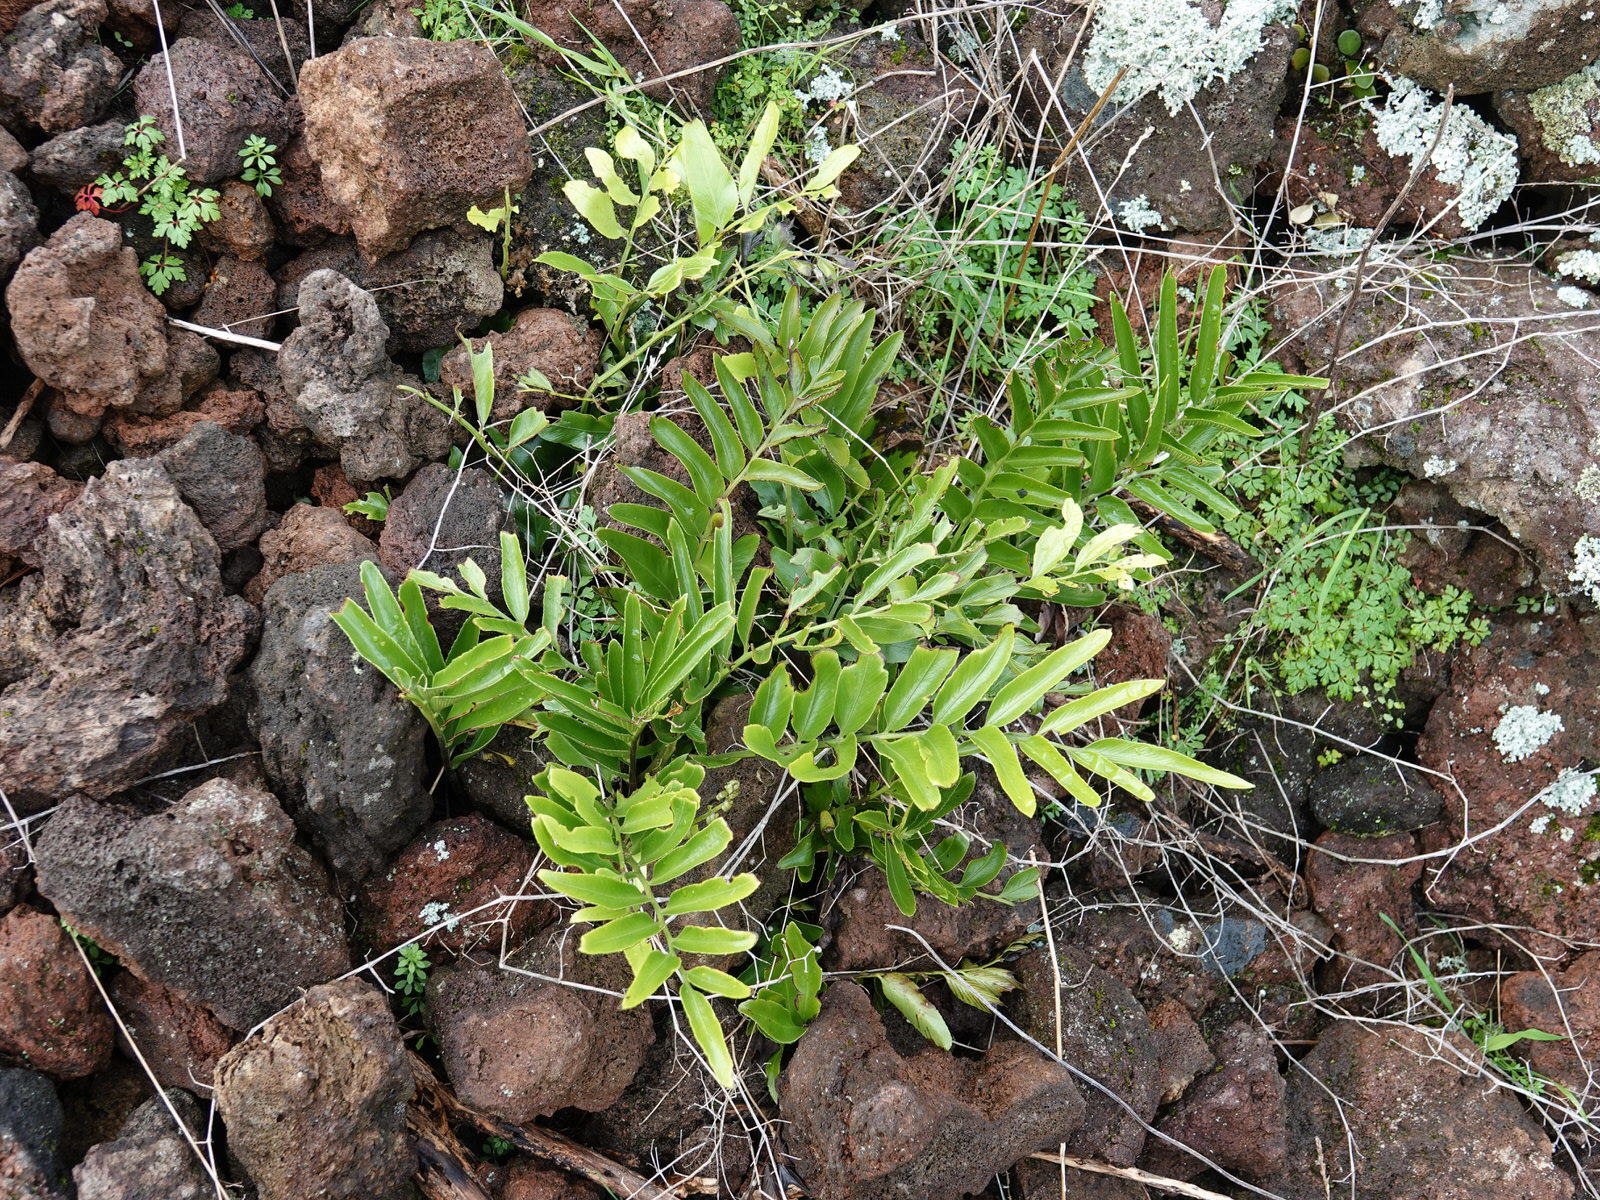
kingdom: Plantae
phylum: Tracheophyta
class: Polypodiopsida
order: Polypodiales
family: Aspleniaceae
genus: Asplenium
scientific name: Asplenium oblongifolium
